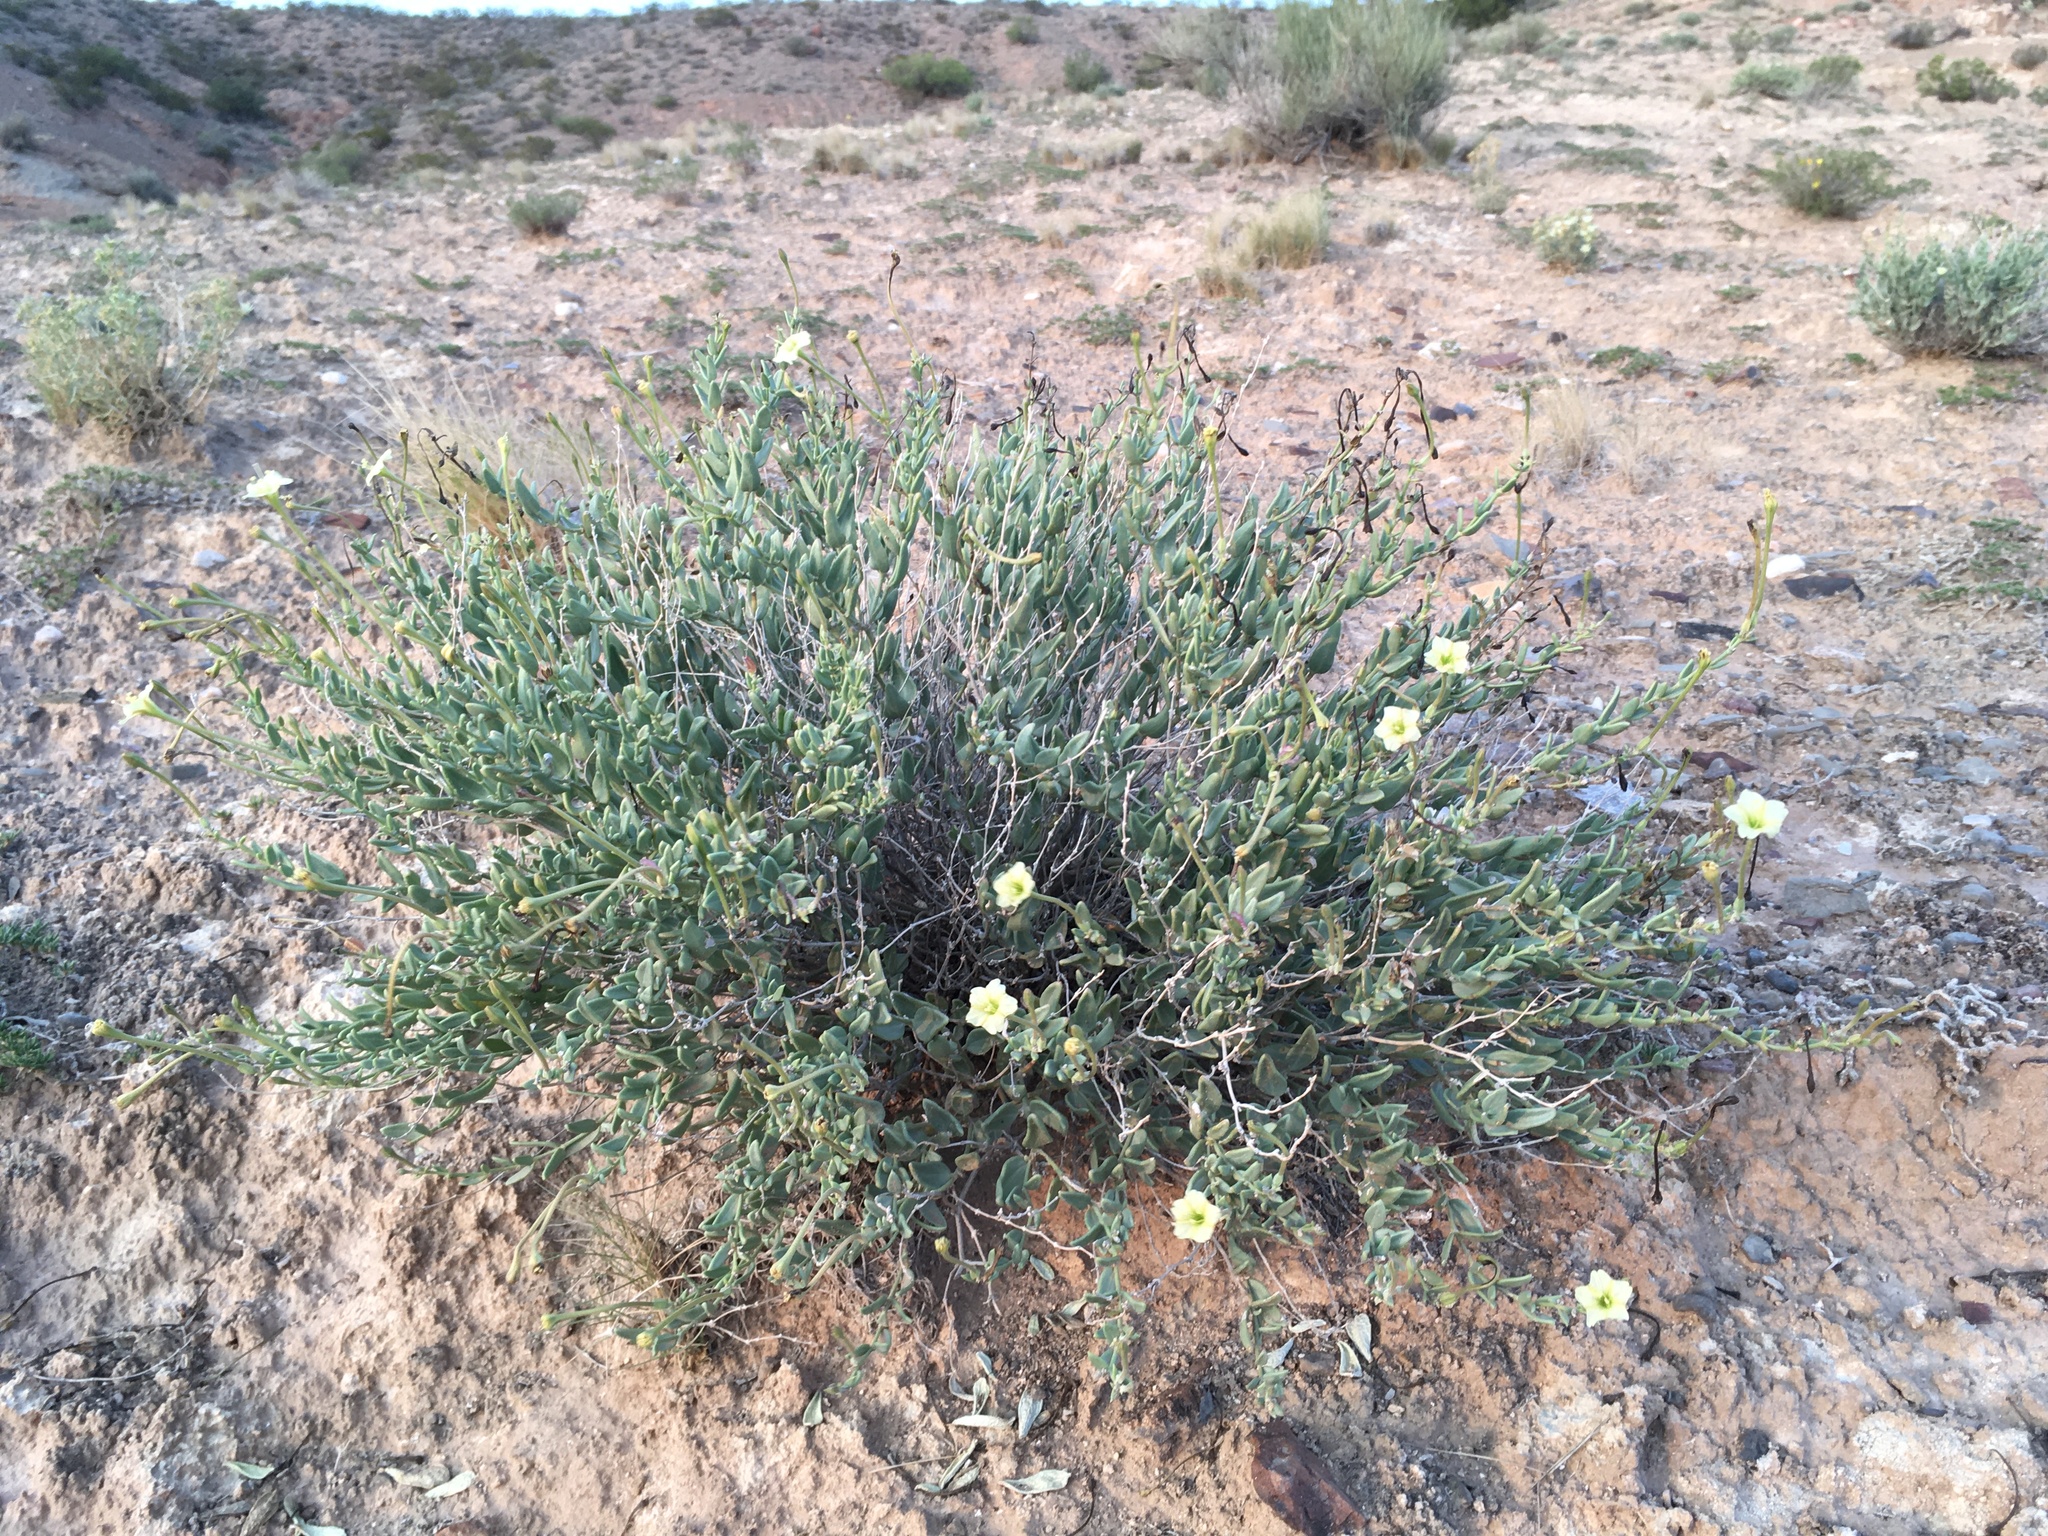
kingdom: Plantae
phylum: Tracheophyta
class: Magnoliopsida
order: Caryophyllales
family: Nyctaginaceae
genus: Acleisanthes
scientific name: Acleisanthes lanceolata
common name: Gypsum moonpod
